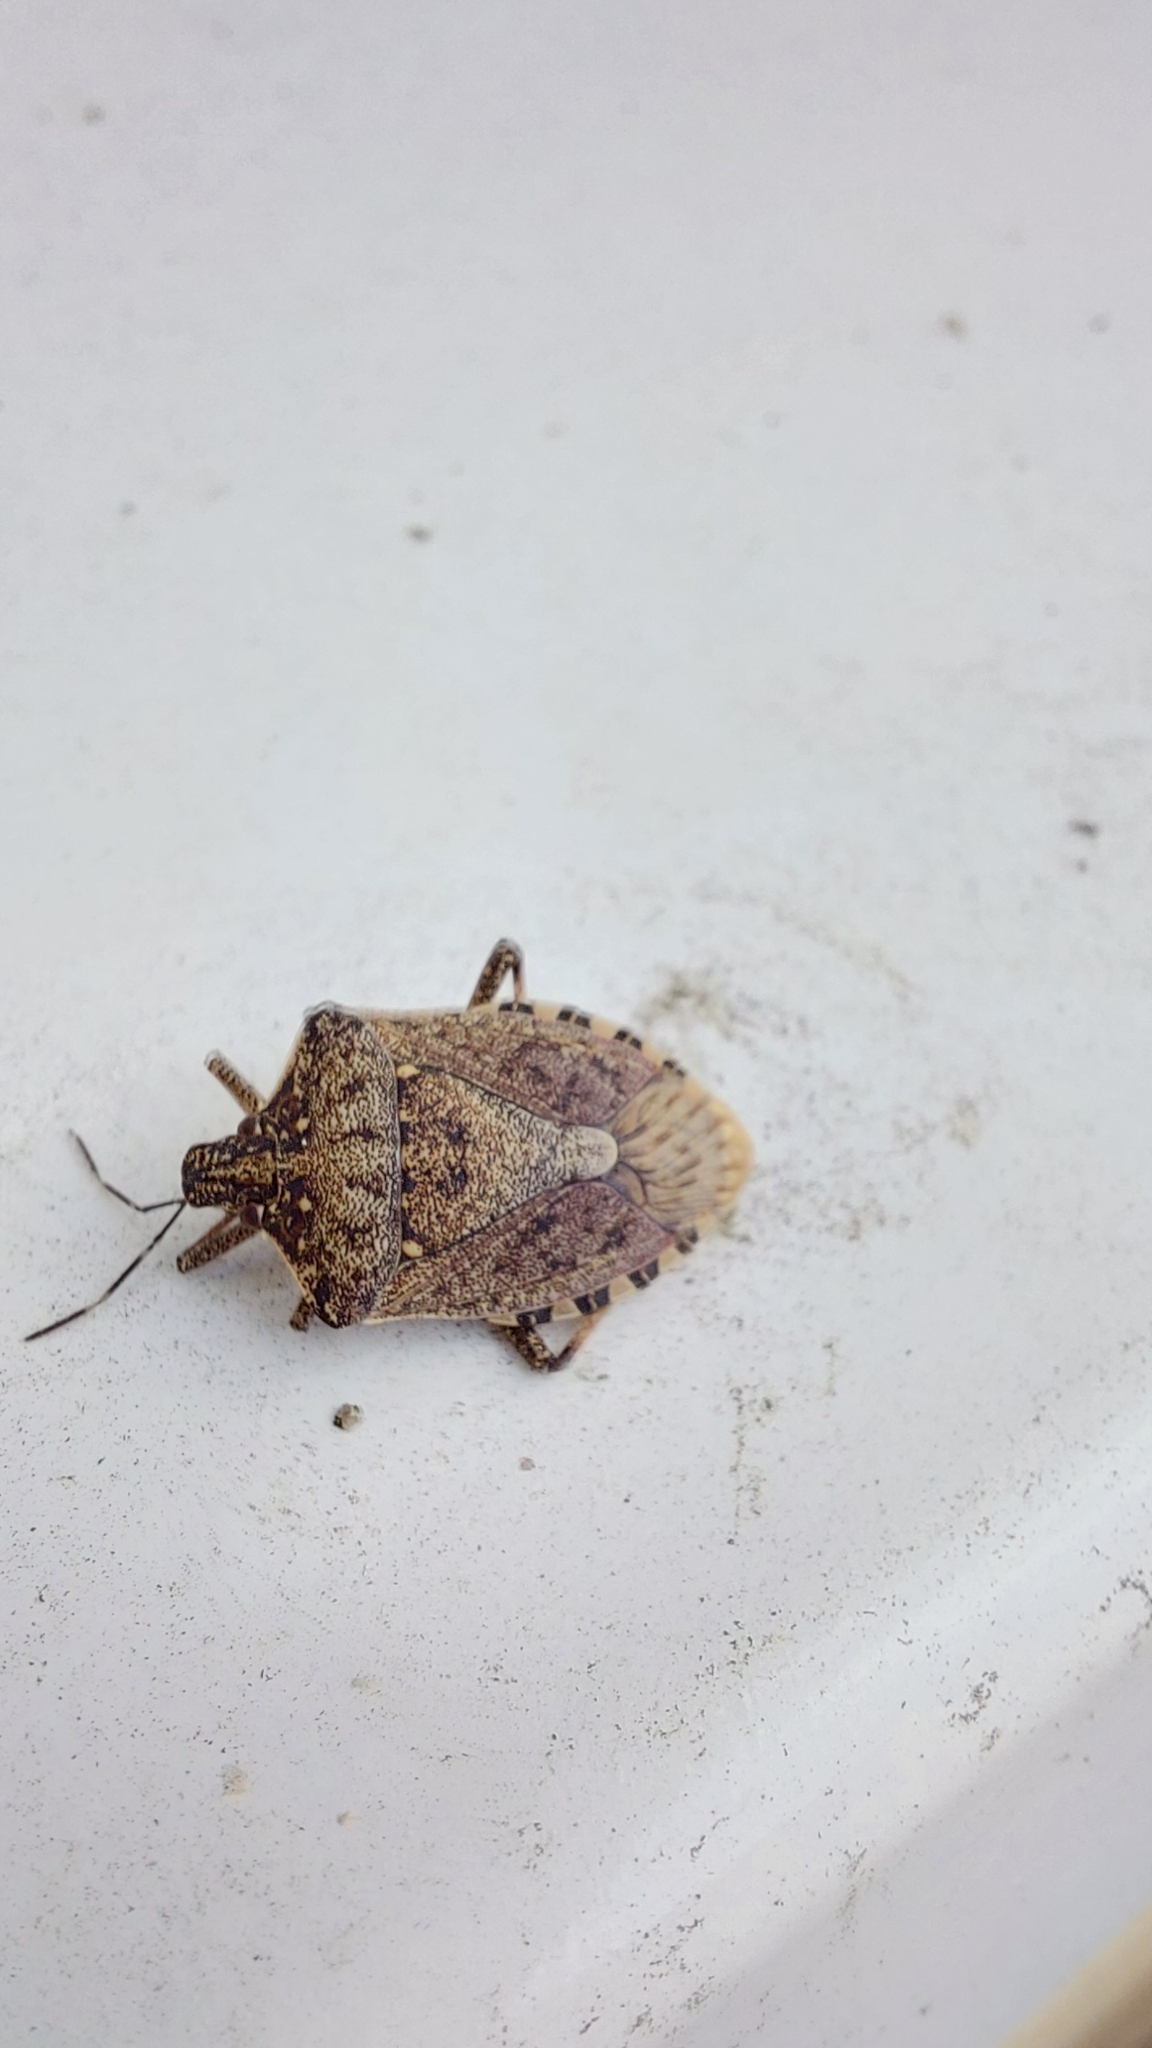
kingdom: Animalia
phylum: Arthropoda
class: Insecta
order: Hemiptera
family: Pentatomidae
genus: Halyomorpha
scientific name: Halyomorpha halys
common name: Brown marmorated stink bug
